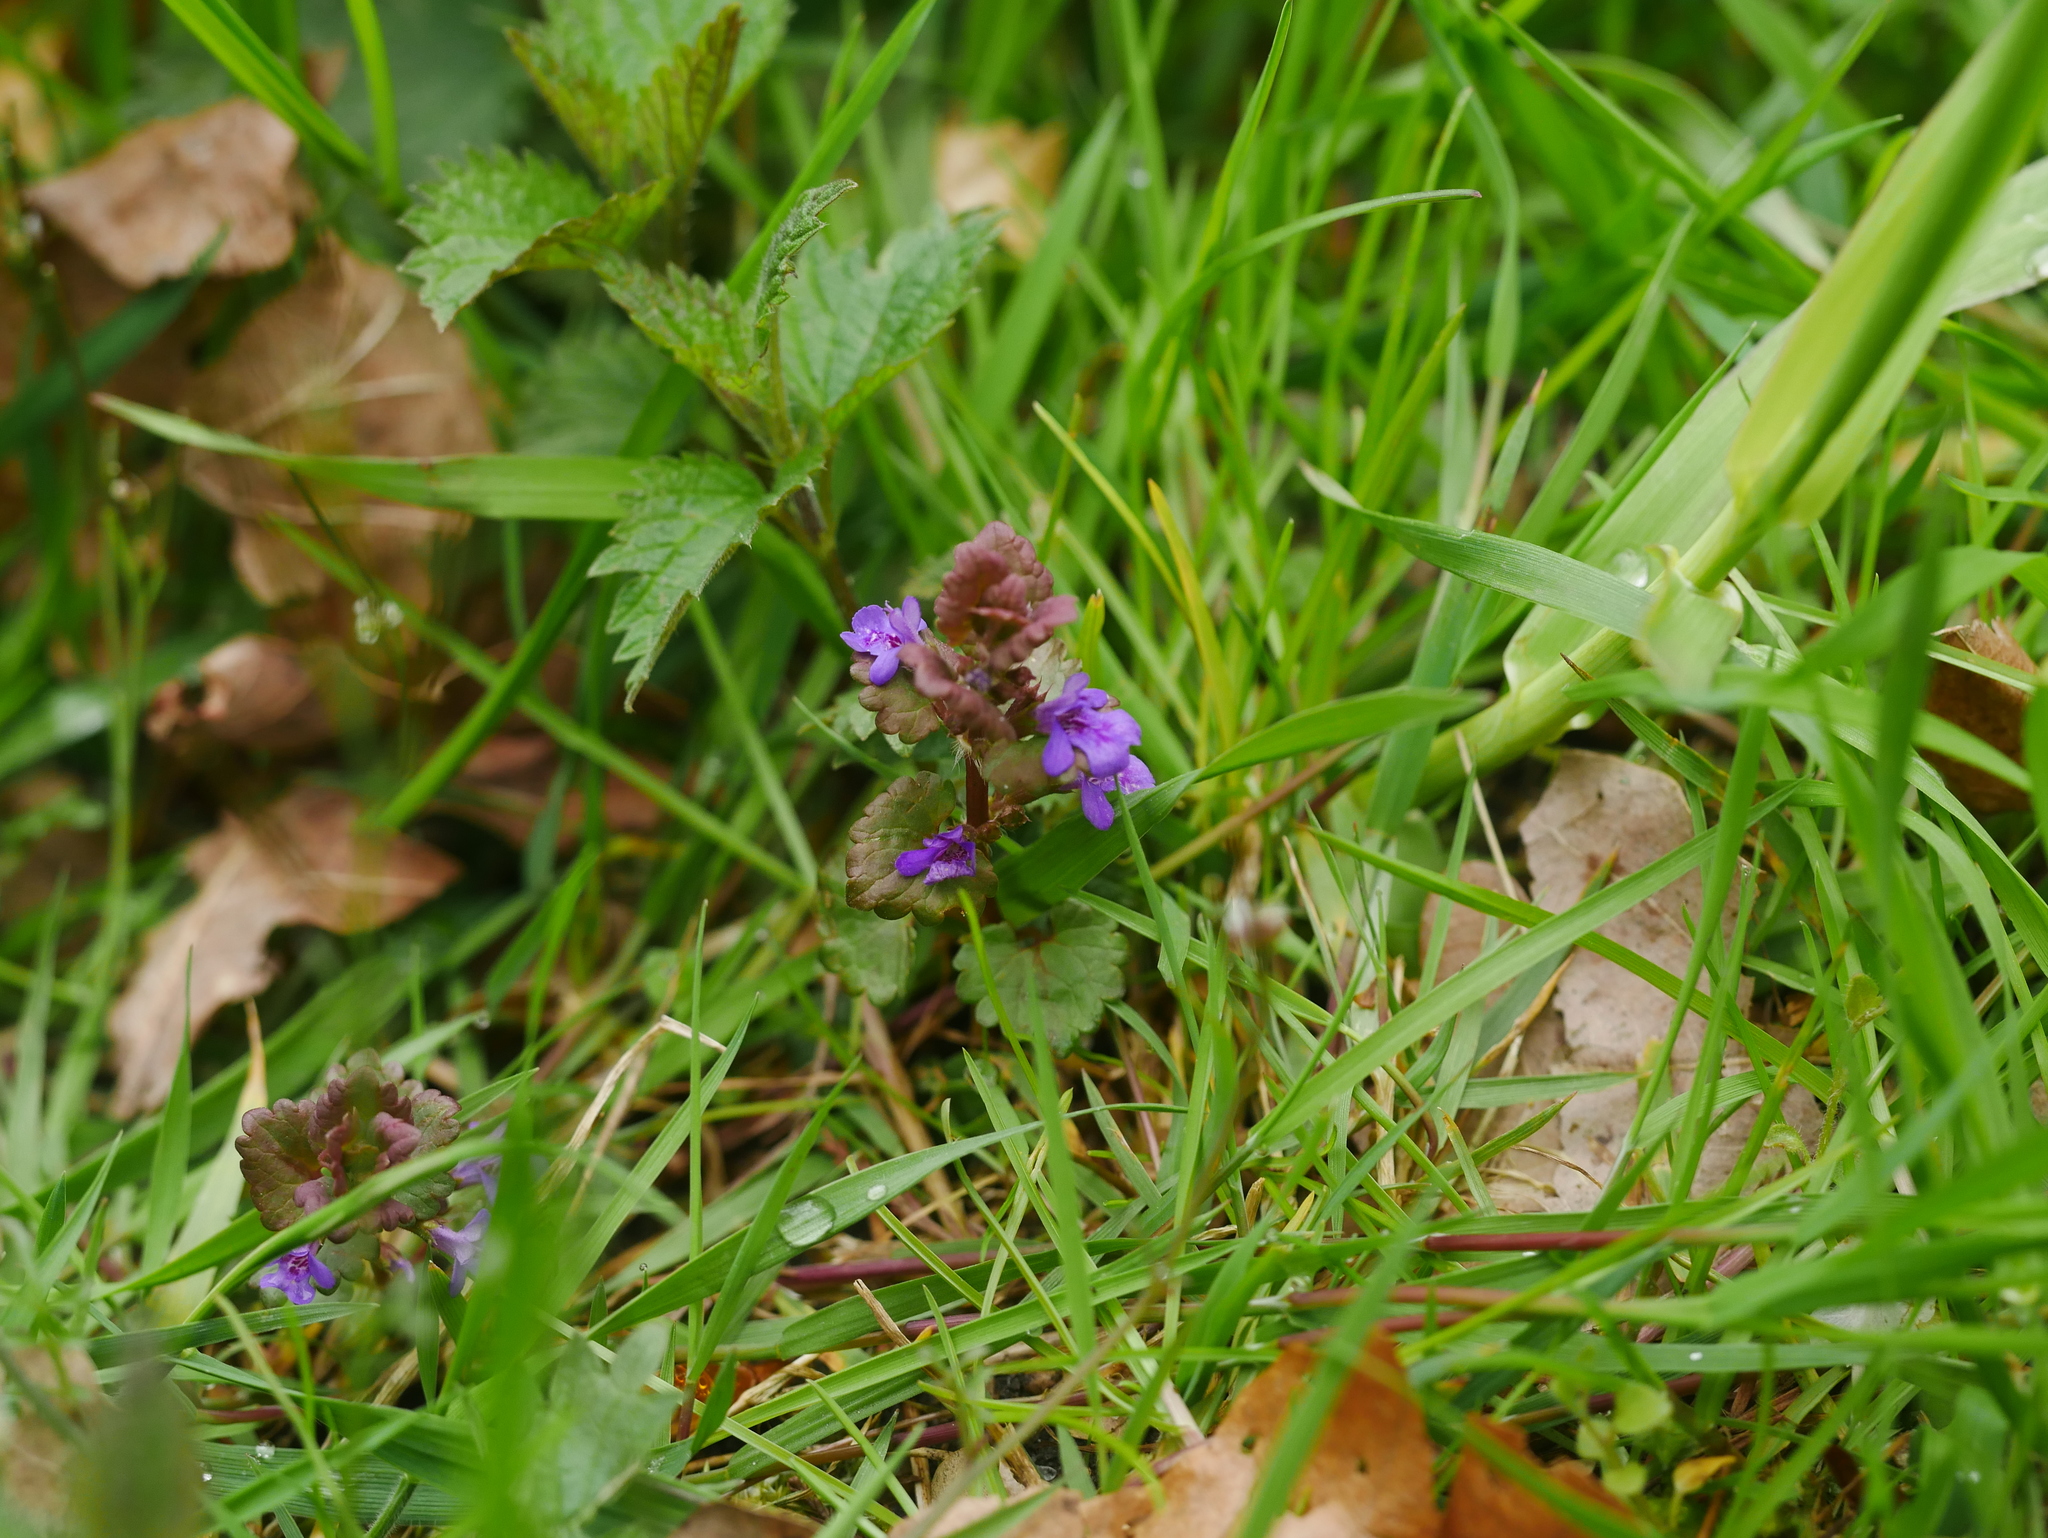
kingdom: Plantae
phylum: Tracheophyta
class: Magnoliopsida
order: Lamiales
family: Lamiaceae
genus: Glechoma
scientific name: Glechoma hederacea
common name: Ground ivy
